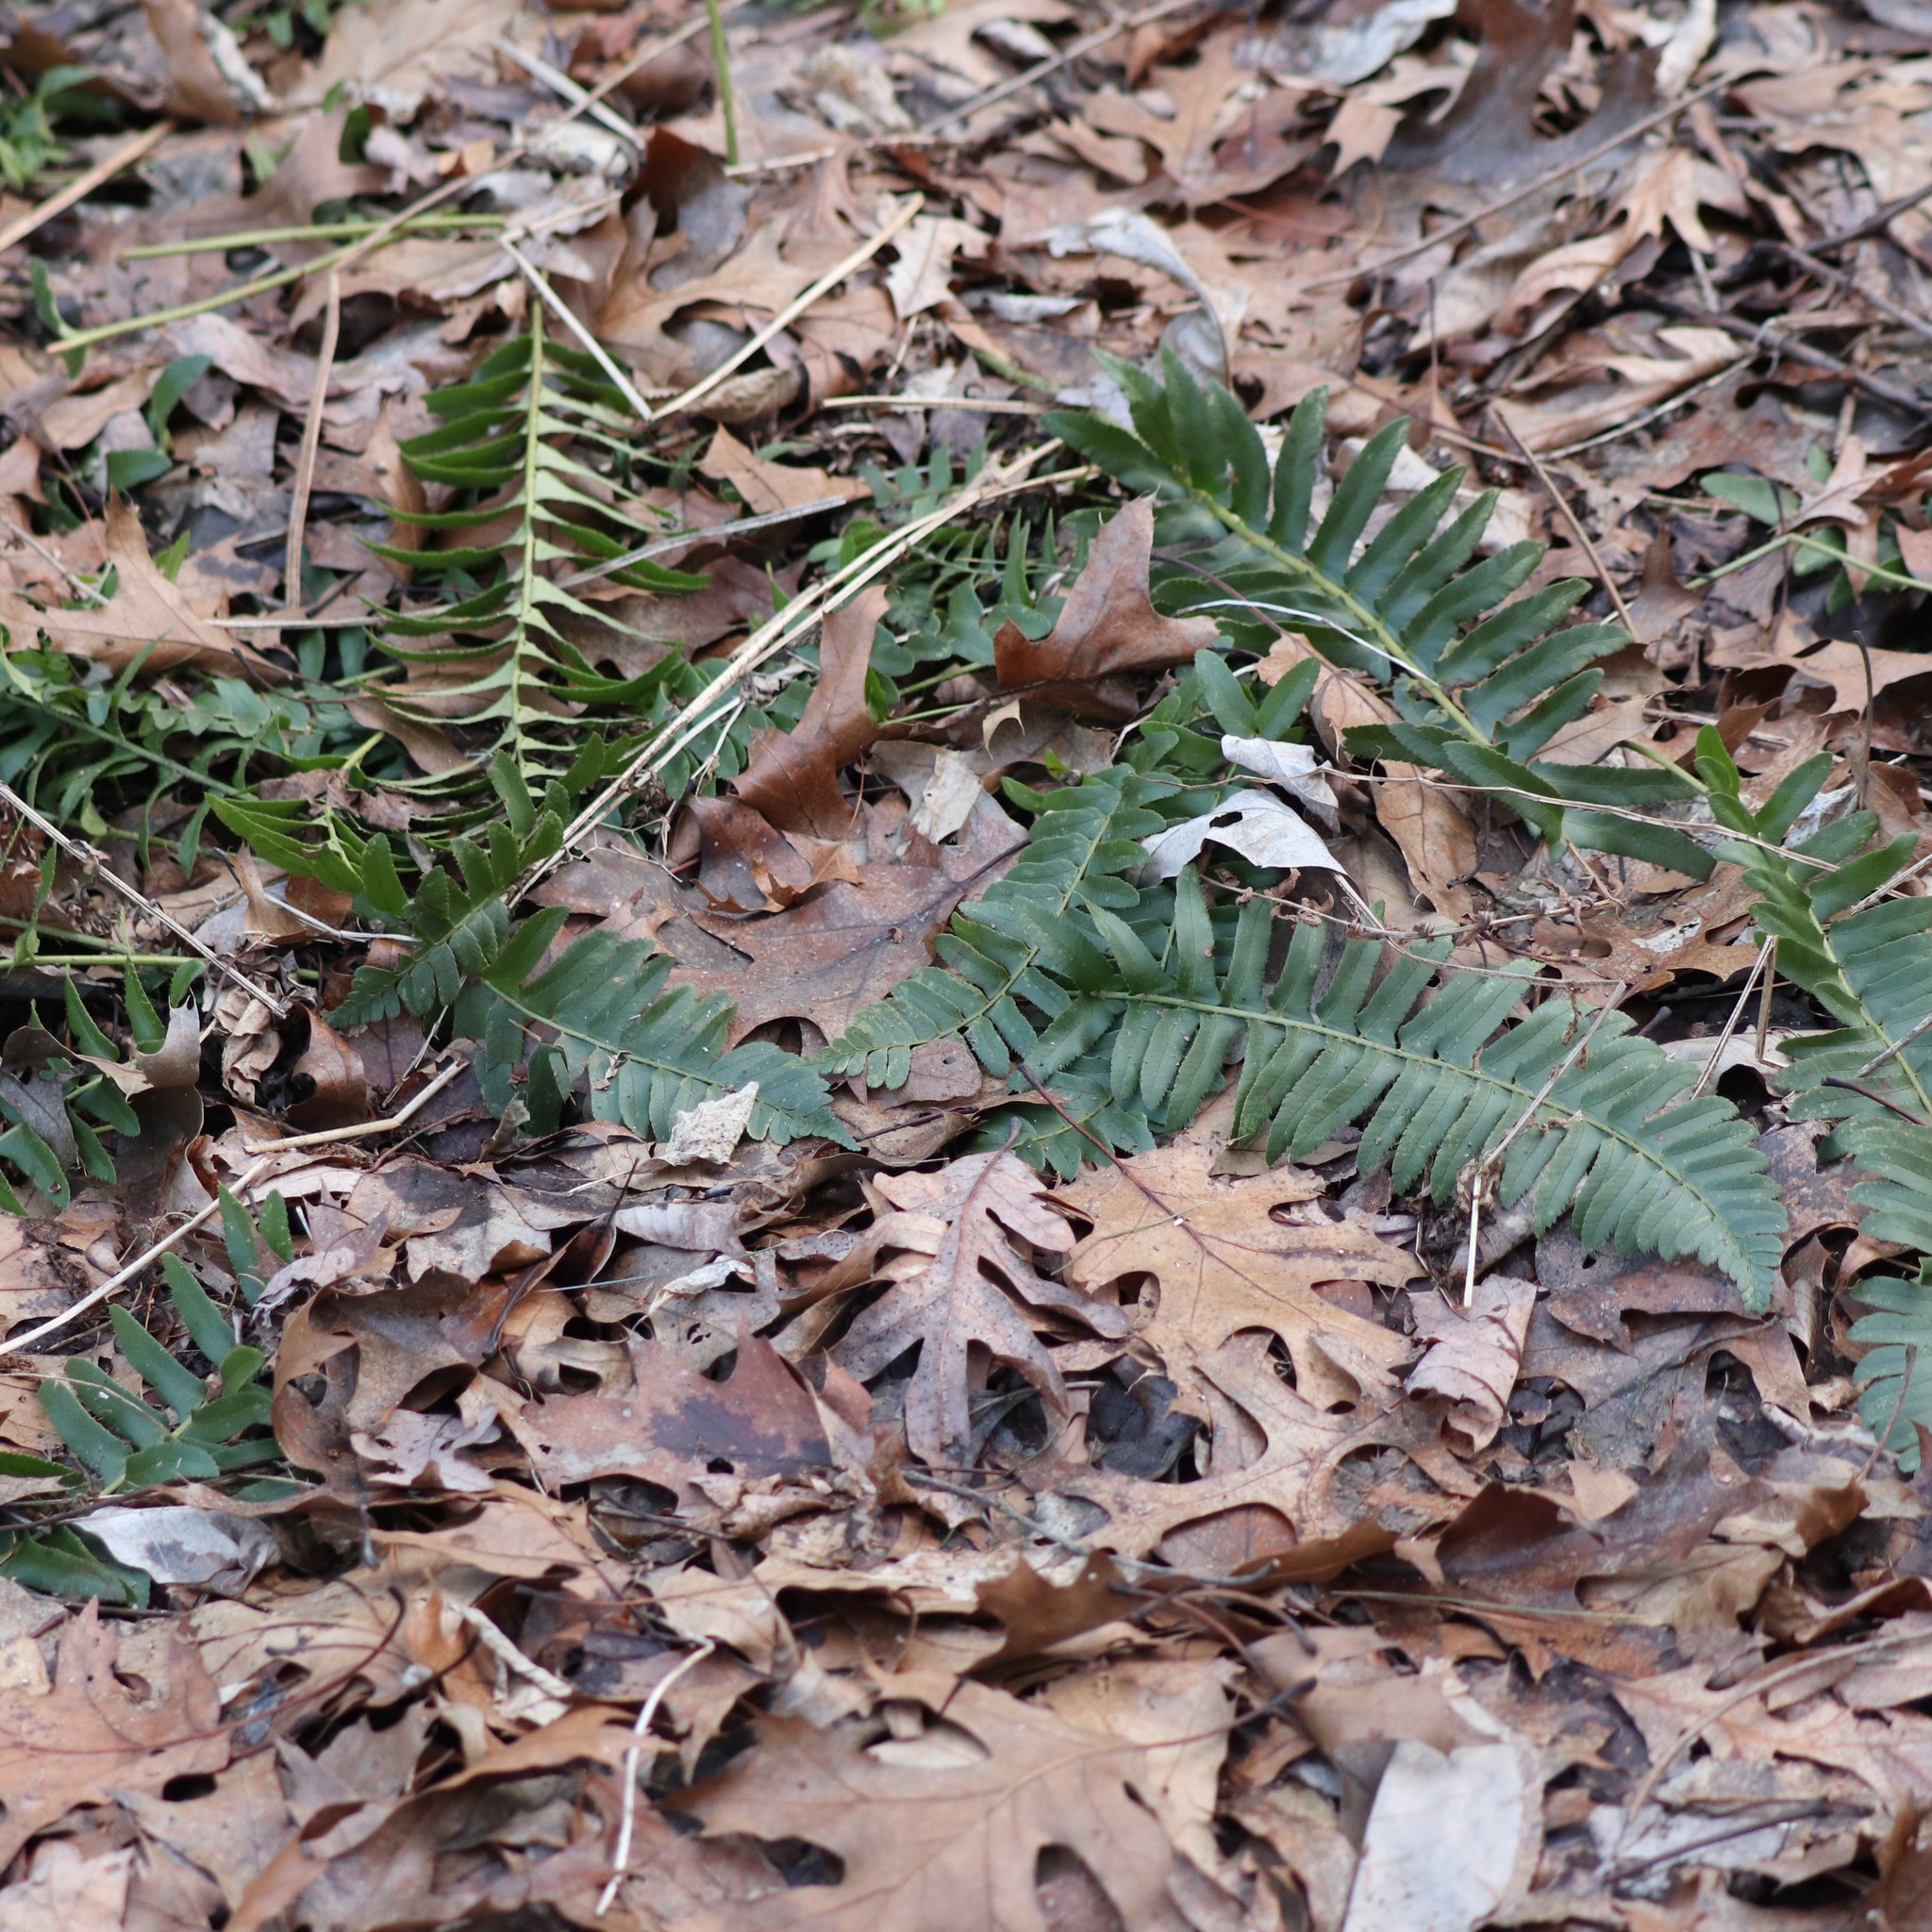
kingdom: Plantae
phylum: Tracheophyta
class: Polypodiopsida
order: Polypodiales
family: Dryopteridaceae
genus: Polystichum
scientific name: Polystichum acrostichoides
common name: Christmas fern
